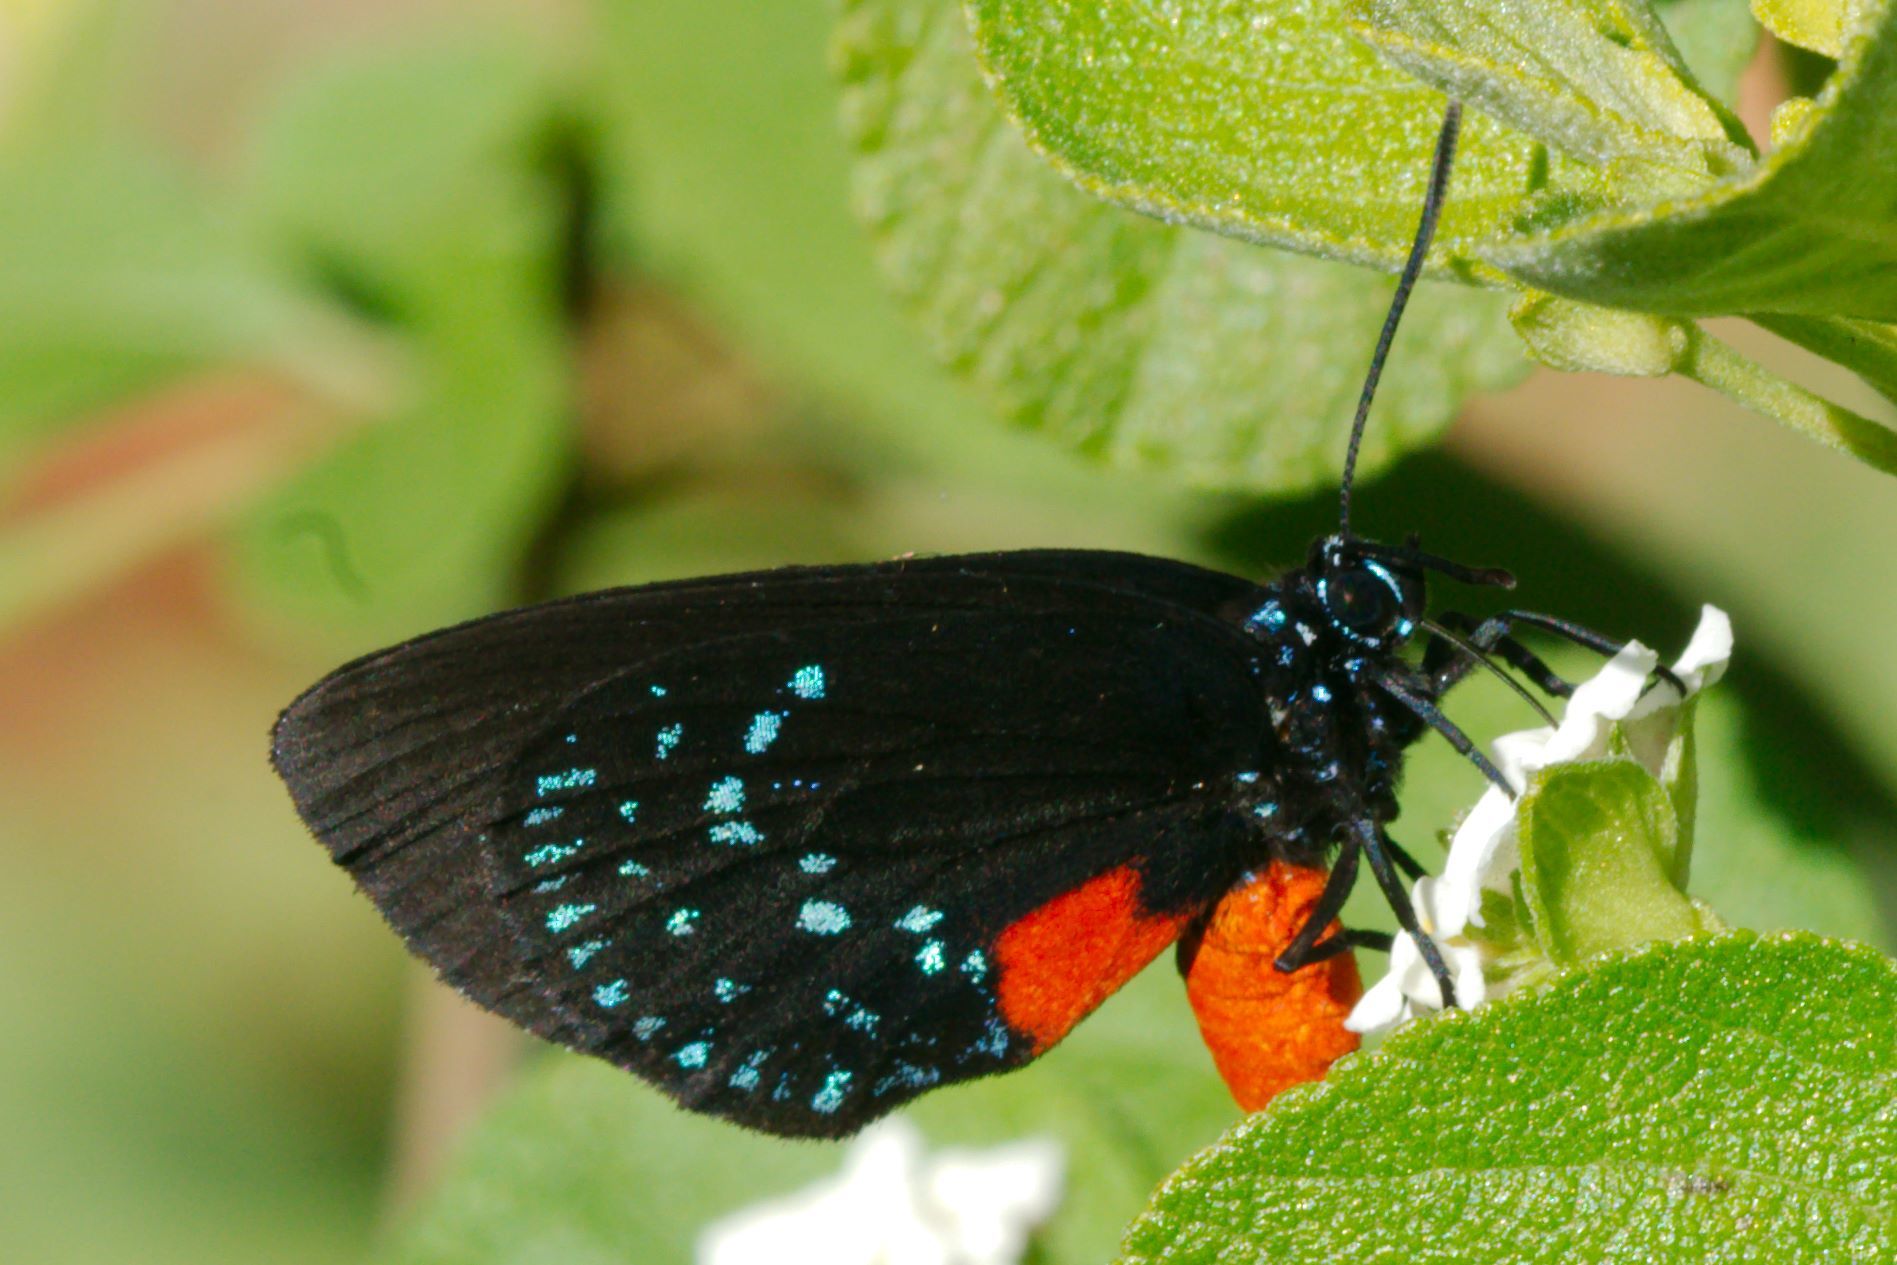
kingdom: Animalia
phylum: Arthropoda
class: Insecta
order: Lepidoptera
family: Lycaenidae
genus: Eumaeus
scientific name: Eumaeus atala
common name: Atala
